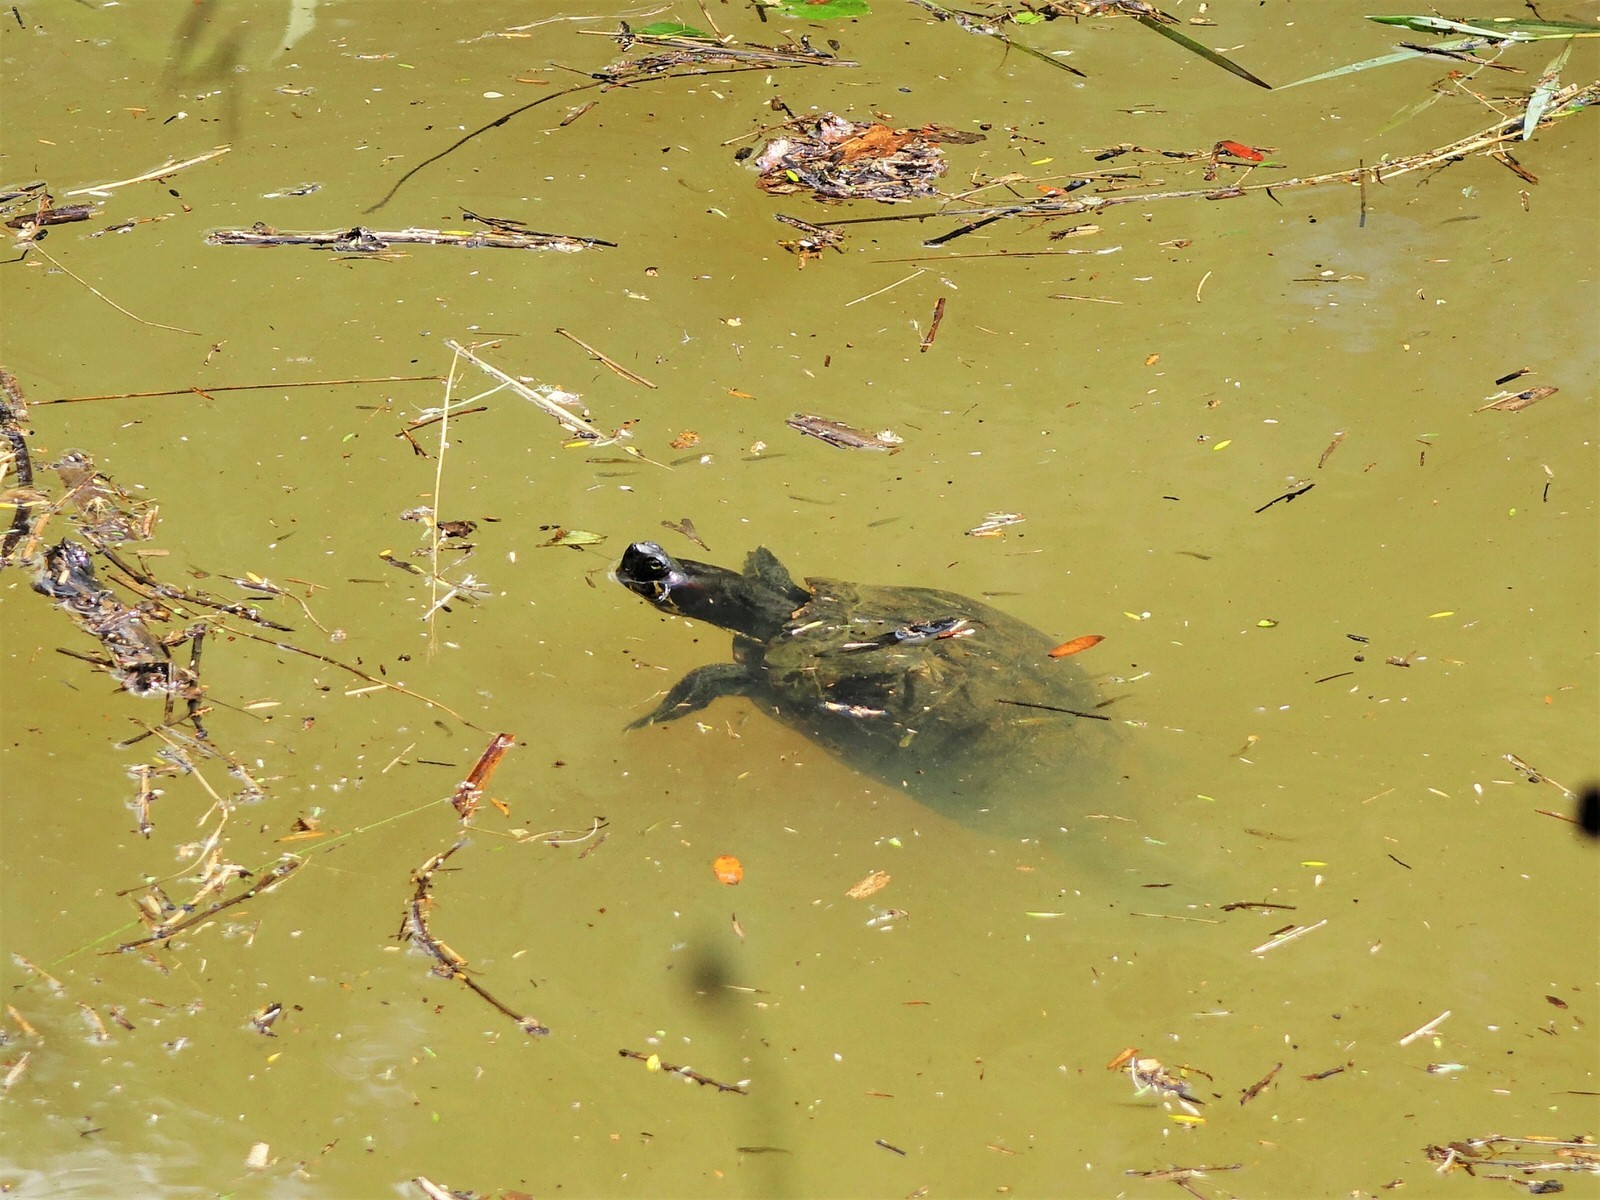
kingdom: Animalia
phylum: Chordata
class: Testudines
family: Emydidae
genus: Trachemys
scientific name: Trachemys scripta
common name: Slider
